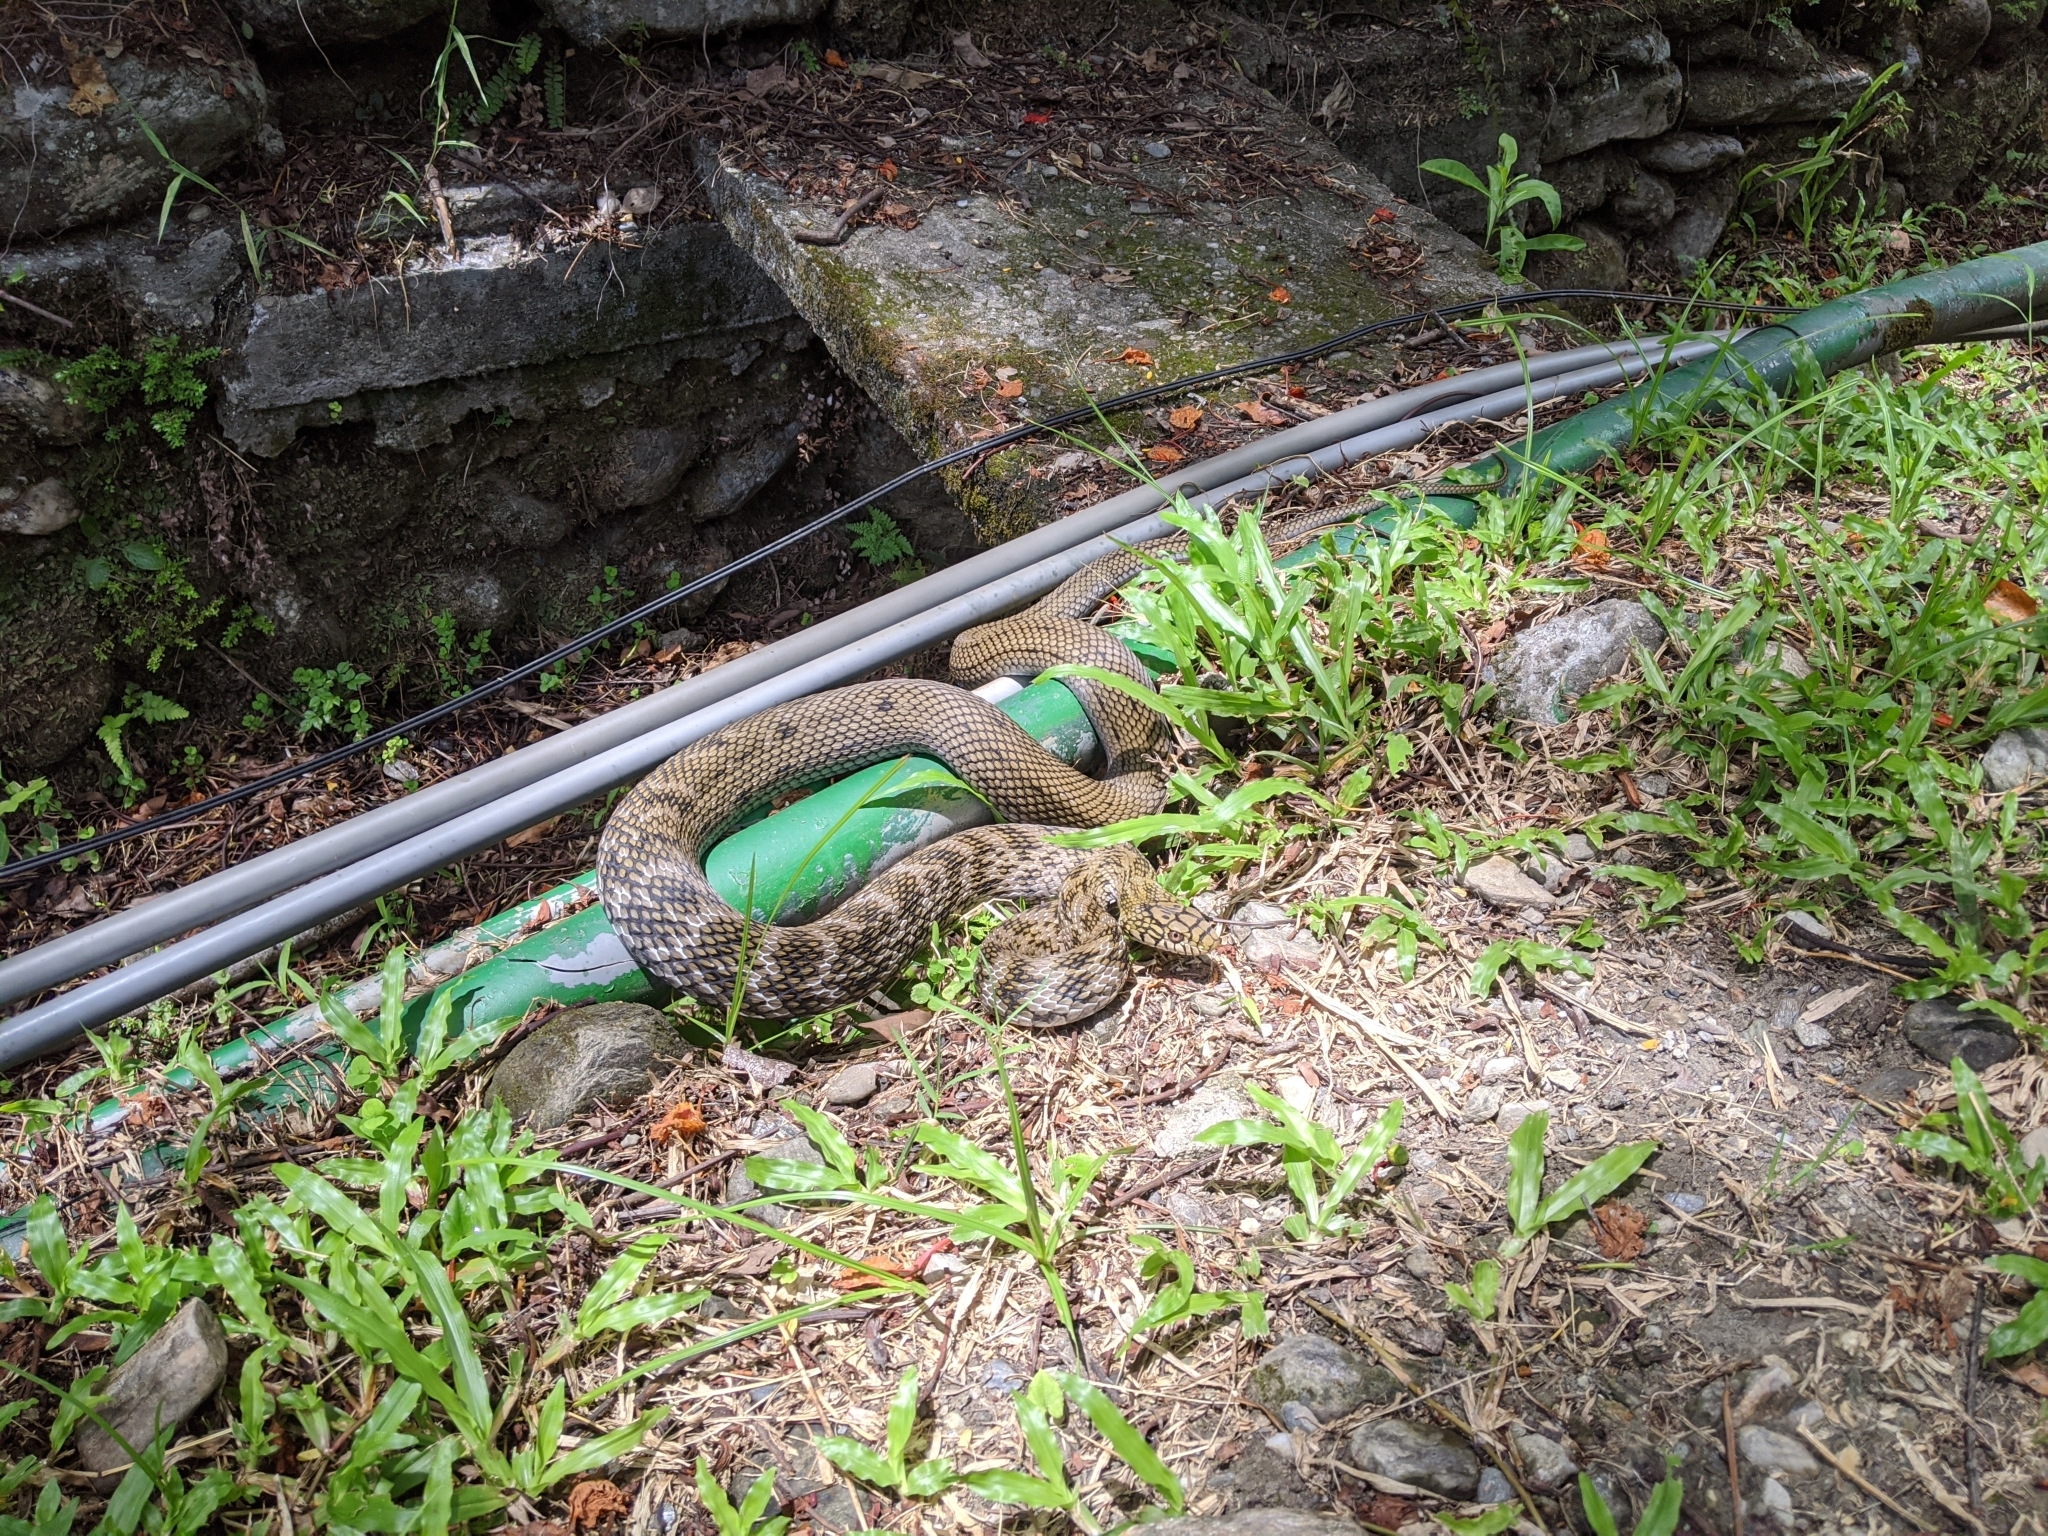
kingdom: Animalia
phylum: Chordata
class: Squamata
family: Colubridae
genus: Elaphe
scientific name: Elaphe carinata
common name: Taiwan stink snake
